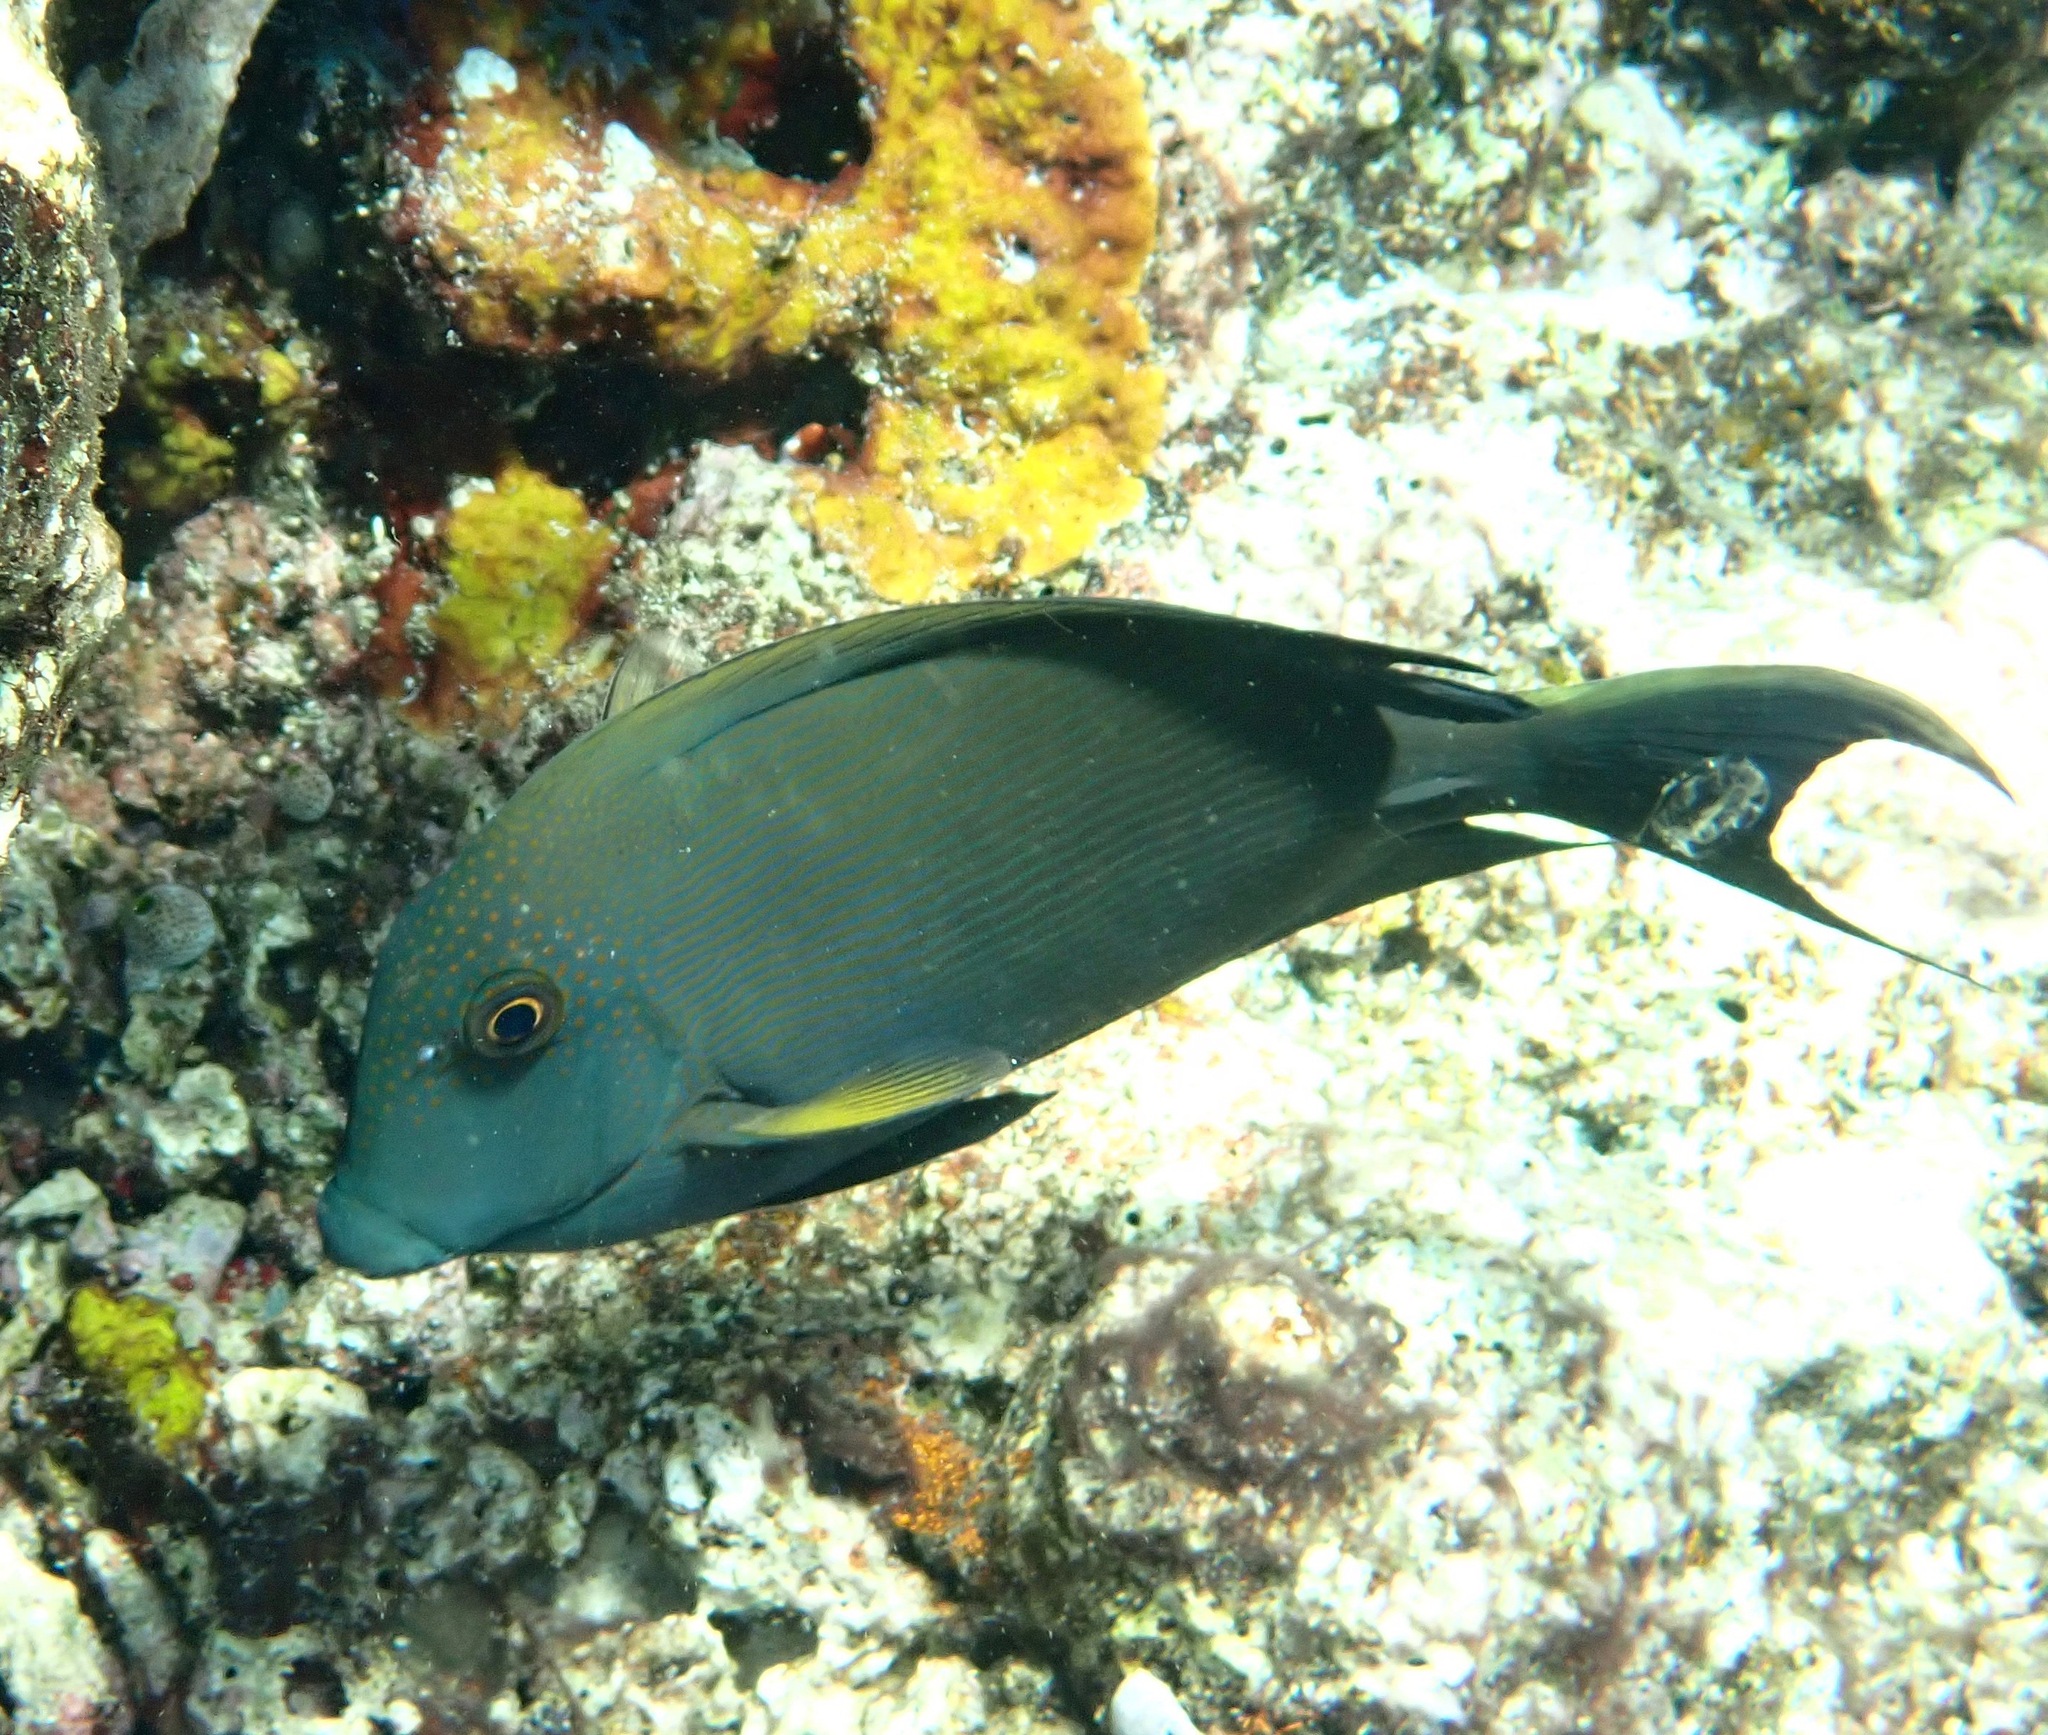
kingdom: Animalia
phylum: Chordata
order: Perciformes
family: Acanthuridae
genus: Ctenochaetus
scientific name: Ctenochaetus striatus
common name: Bristle-toothed surgeonfish
